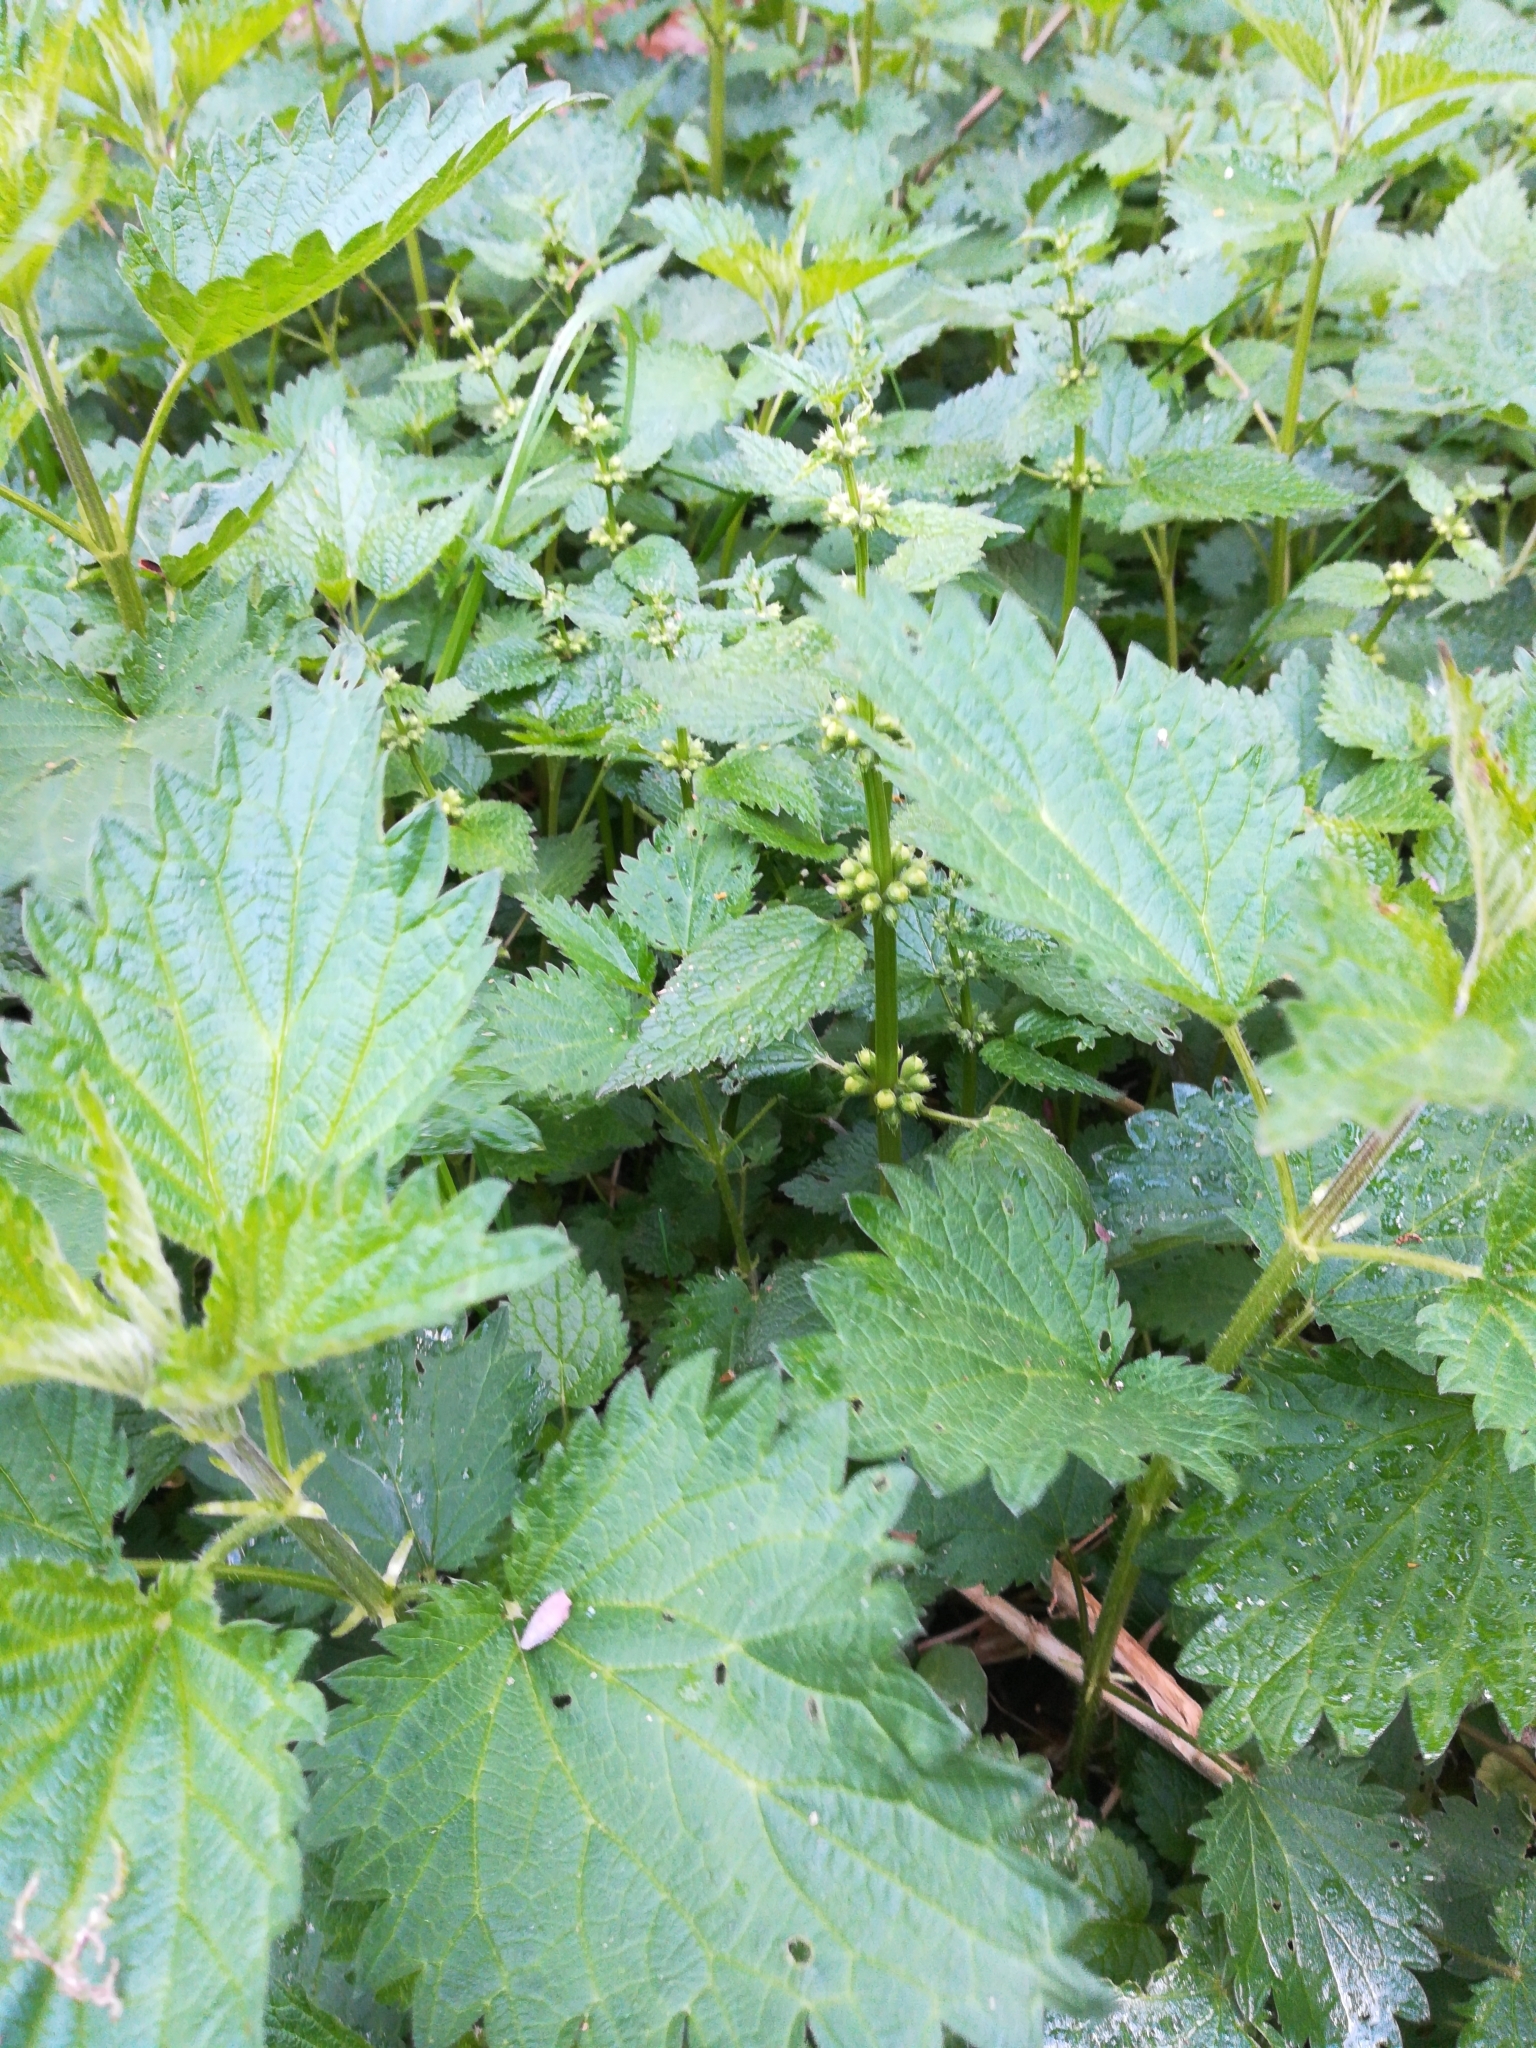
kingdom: Plantae
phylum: Tracheophyta
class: Magnoliopsida
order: Rosales
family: Urticaceae
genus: Urtica
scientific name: Urtica dioica
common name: Common nettle
